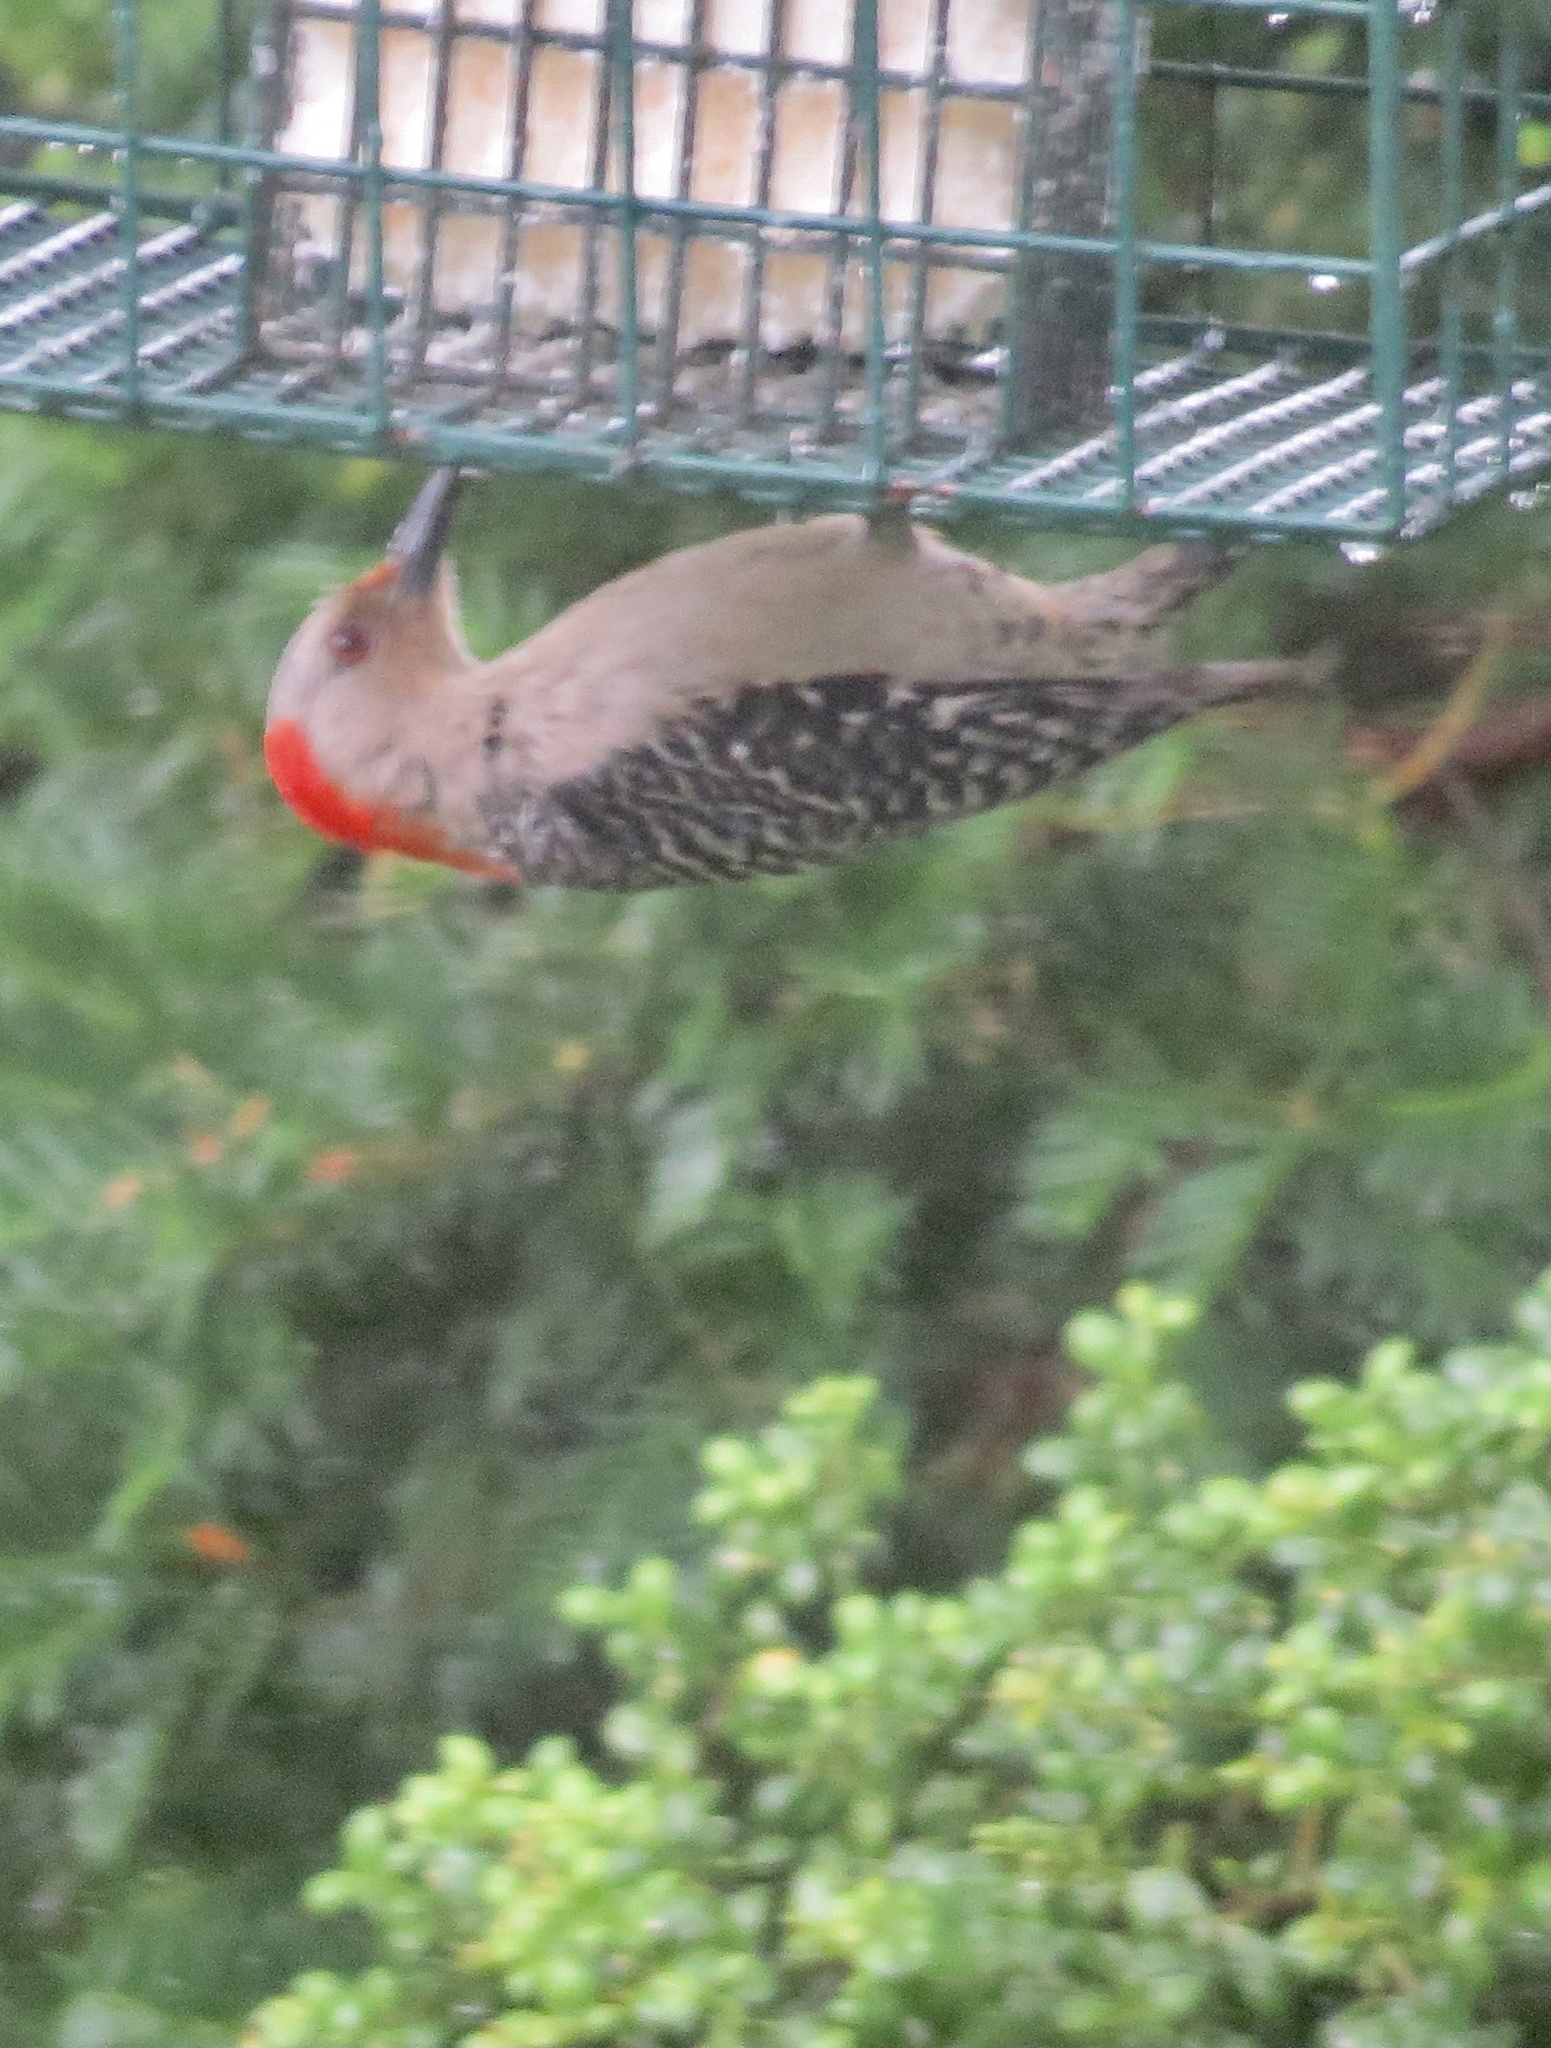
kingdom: Animalia
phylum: Chordata
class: Aves
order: Piciformes
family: Picidae
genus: Melanerpes
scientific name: Melanerpes carolinus
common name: Red-bellied woodpecker
